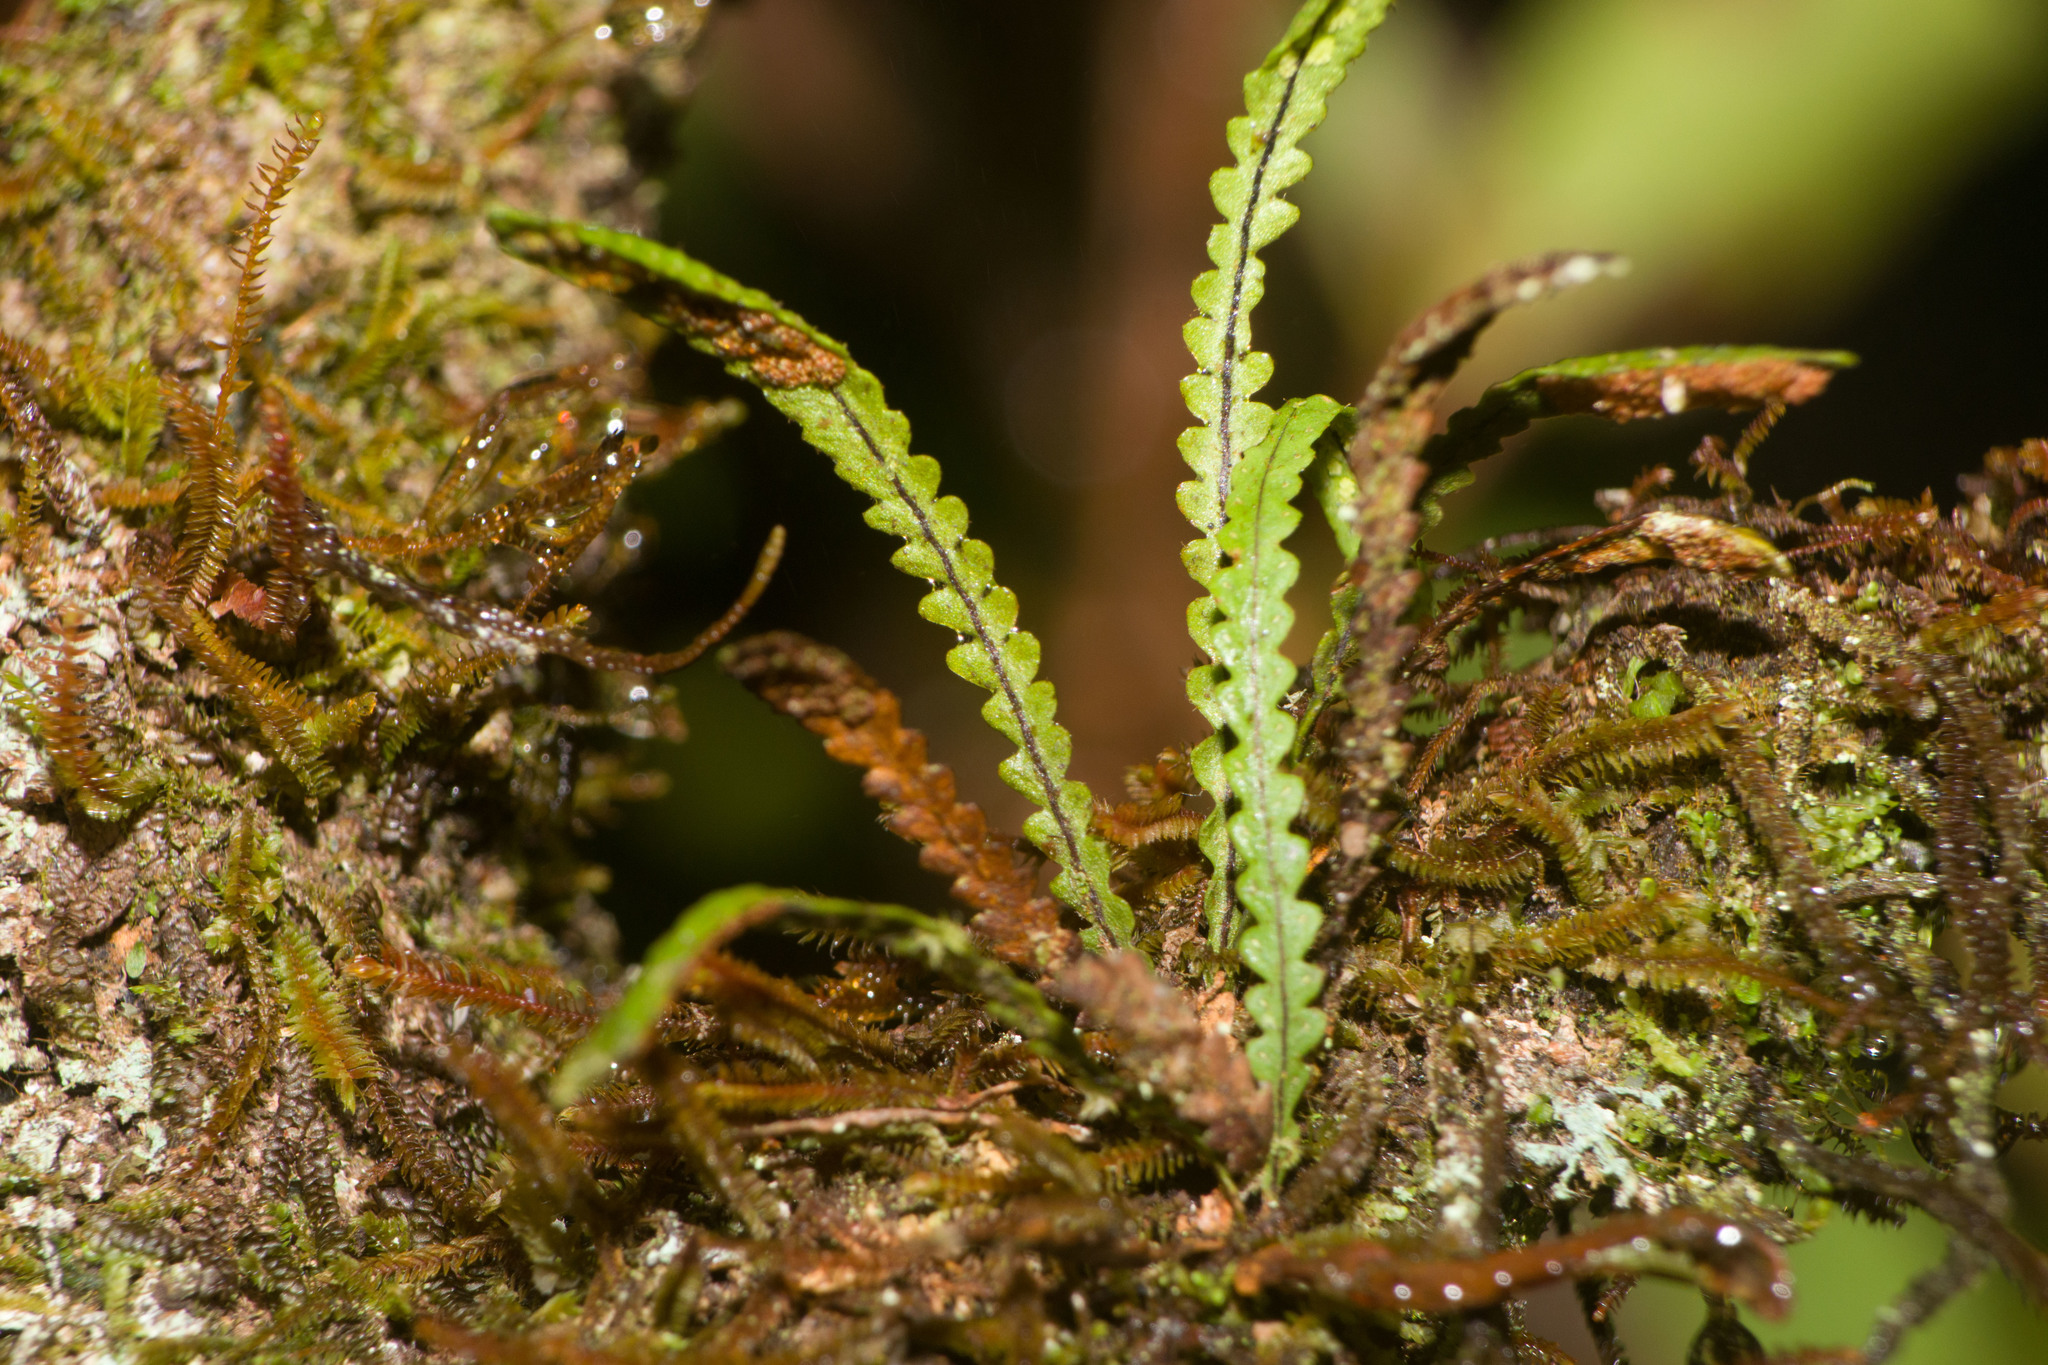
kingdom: Plantae
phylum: Tracheophyta
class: Polypodiopsida
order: Polypodiales
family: Polypodiaceae
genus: Stenogrammitis
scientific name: Stenogrammitis saffordii
